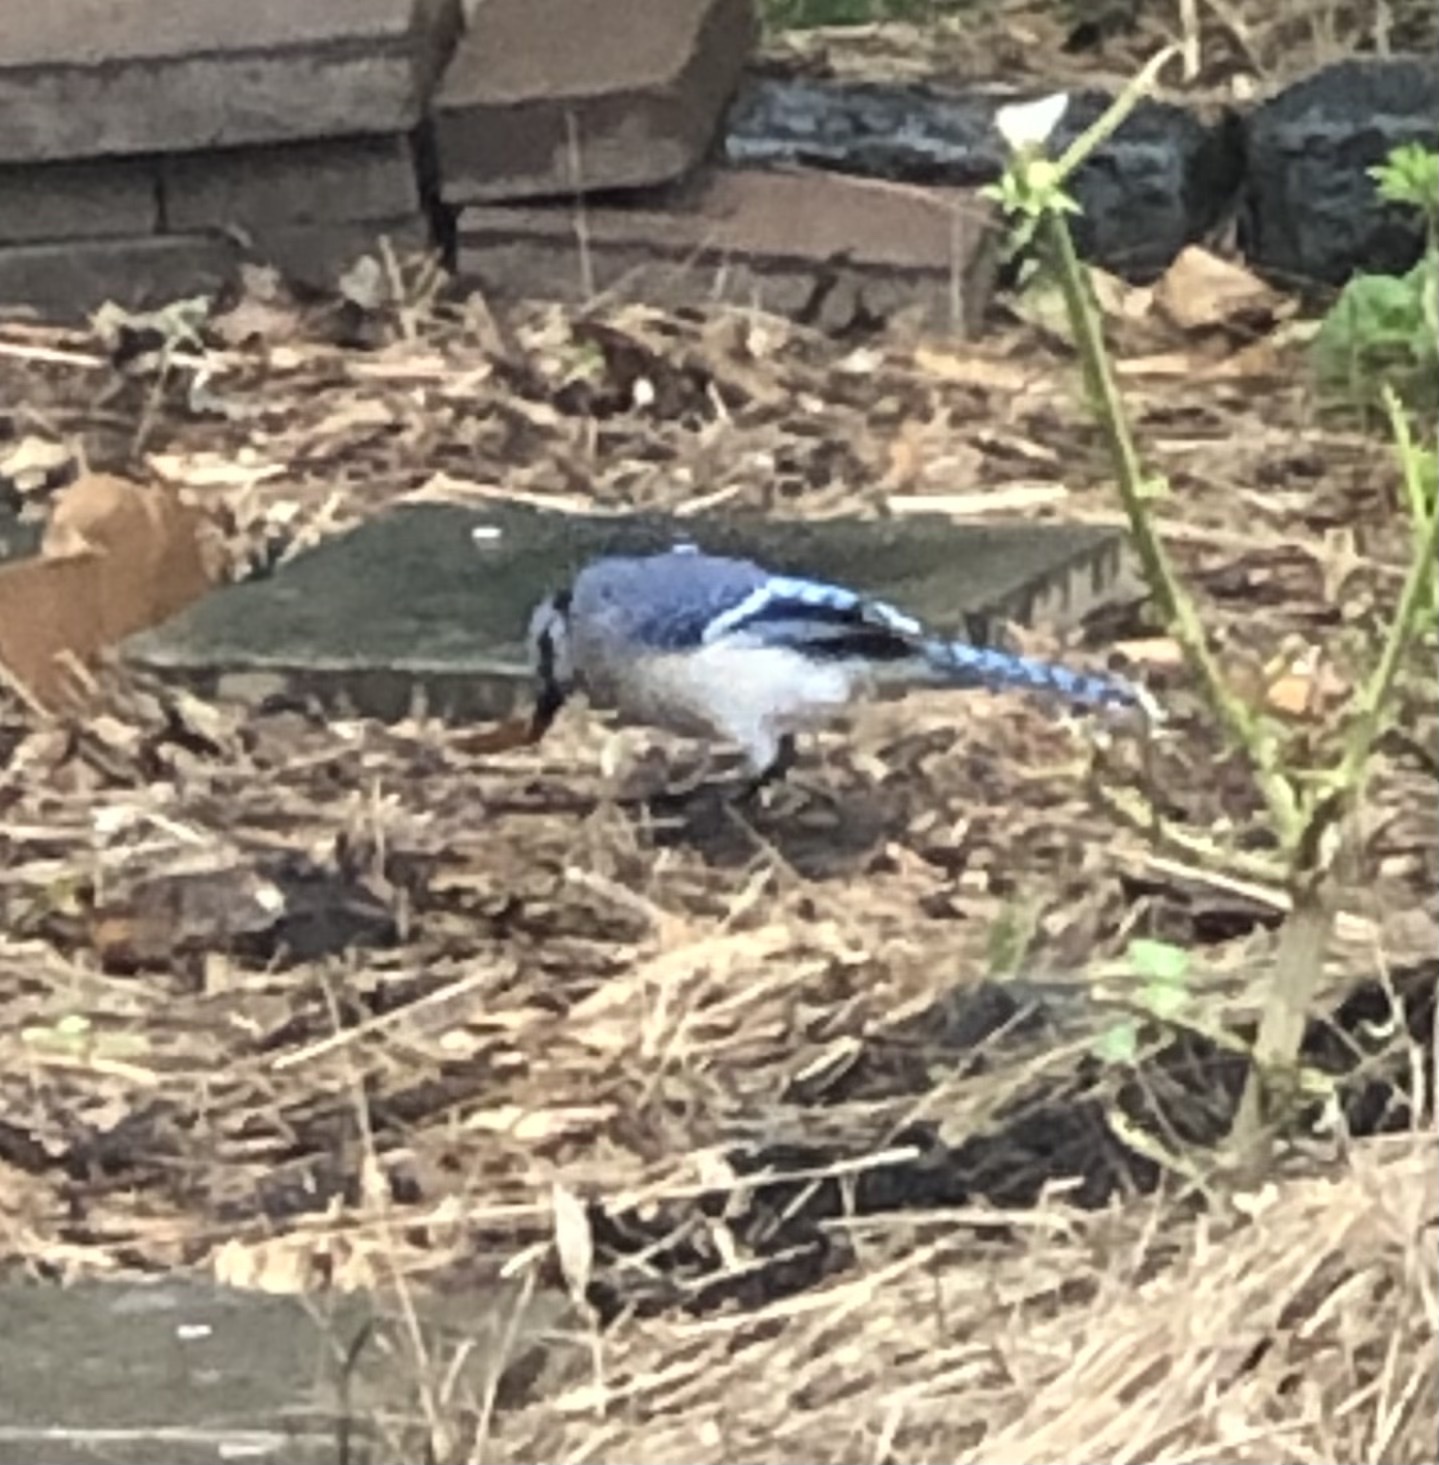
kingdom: Animalia
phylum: Chordata
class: Aves
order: Passeriformes
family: Corvidae
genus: Cyanocitta
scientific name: Cyanocitta cristata
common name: Blue jay
